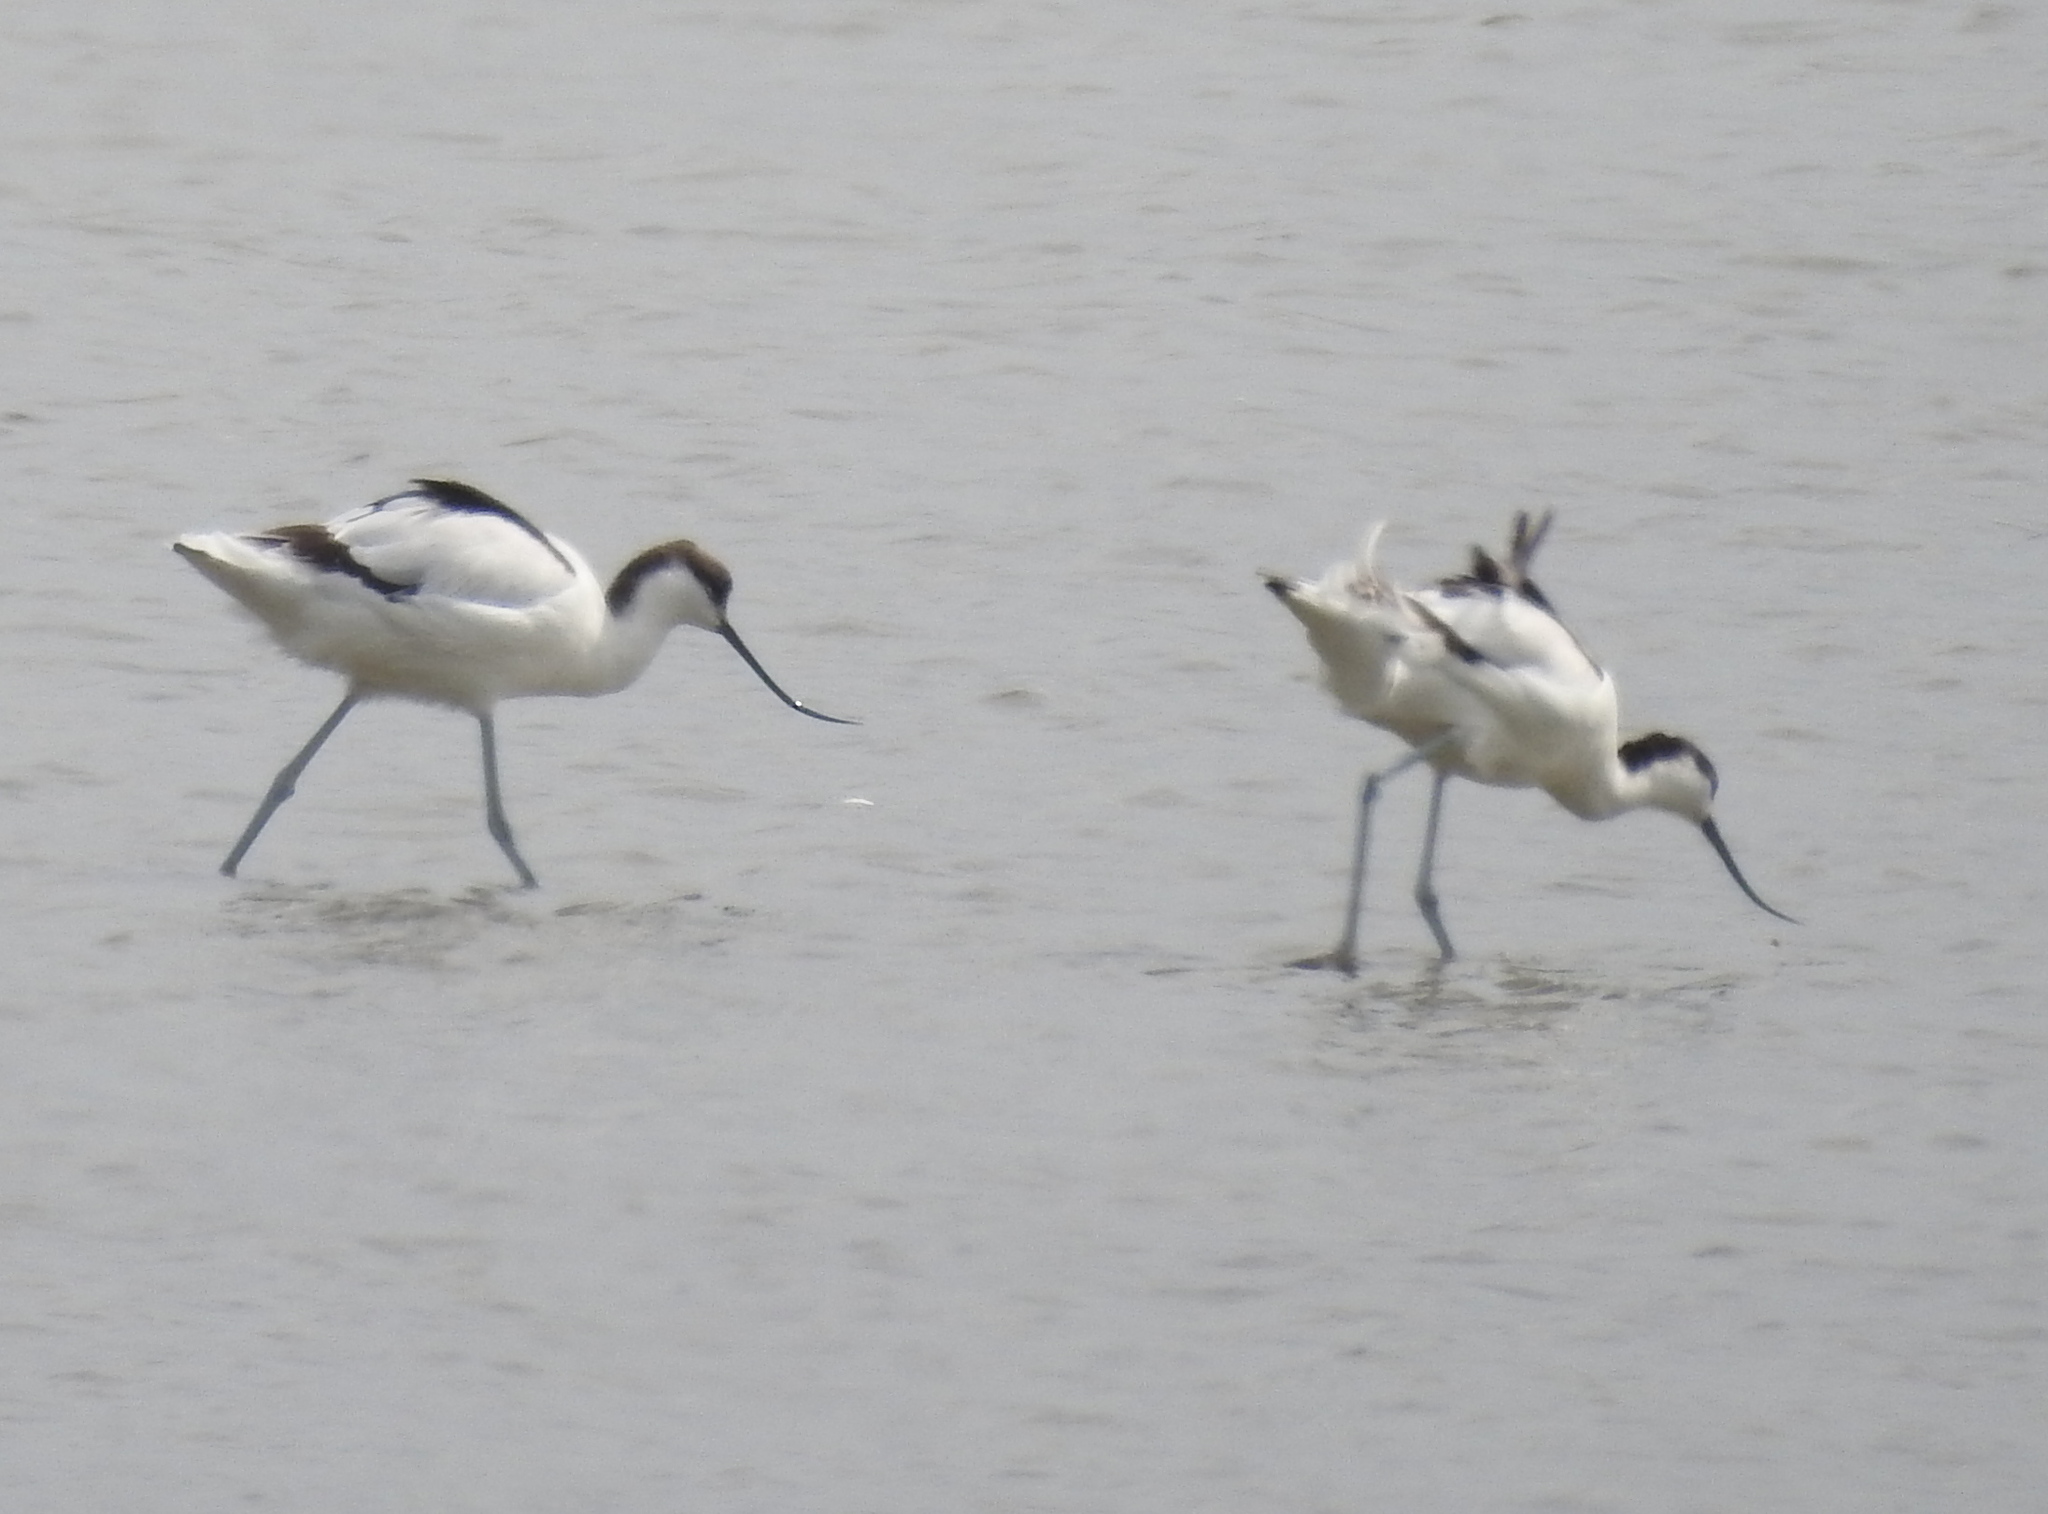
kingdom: Animalia
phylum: Chordata
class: Aves
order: Charadriiformes
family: Recurvirostridae
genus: Recurvirostra
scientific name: Recurvirostra avosetta
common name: Pied avocet
